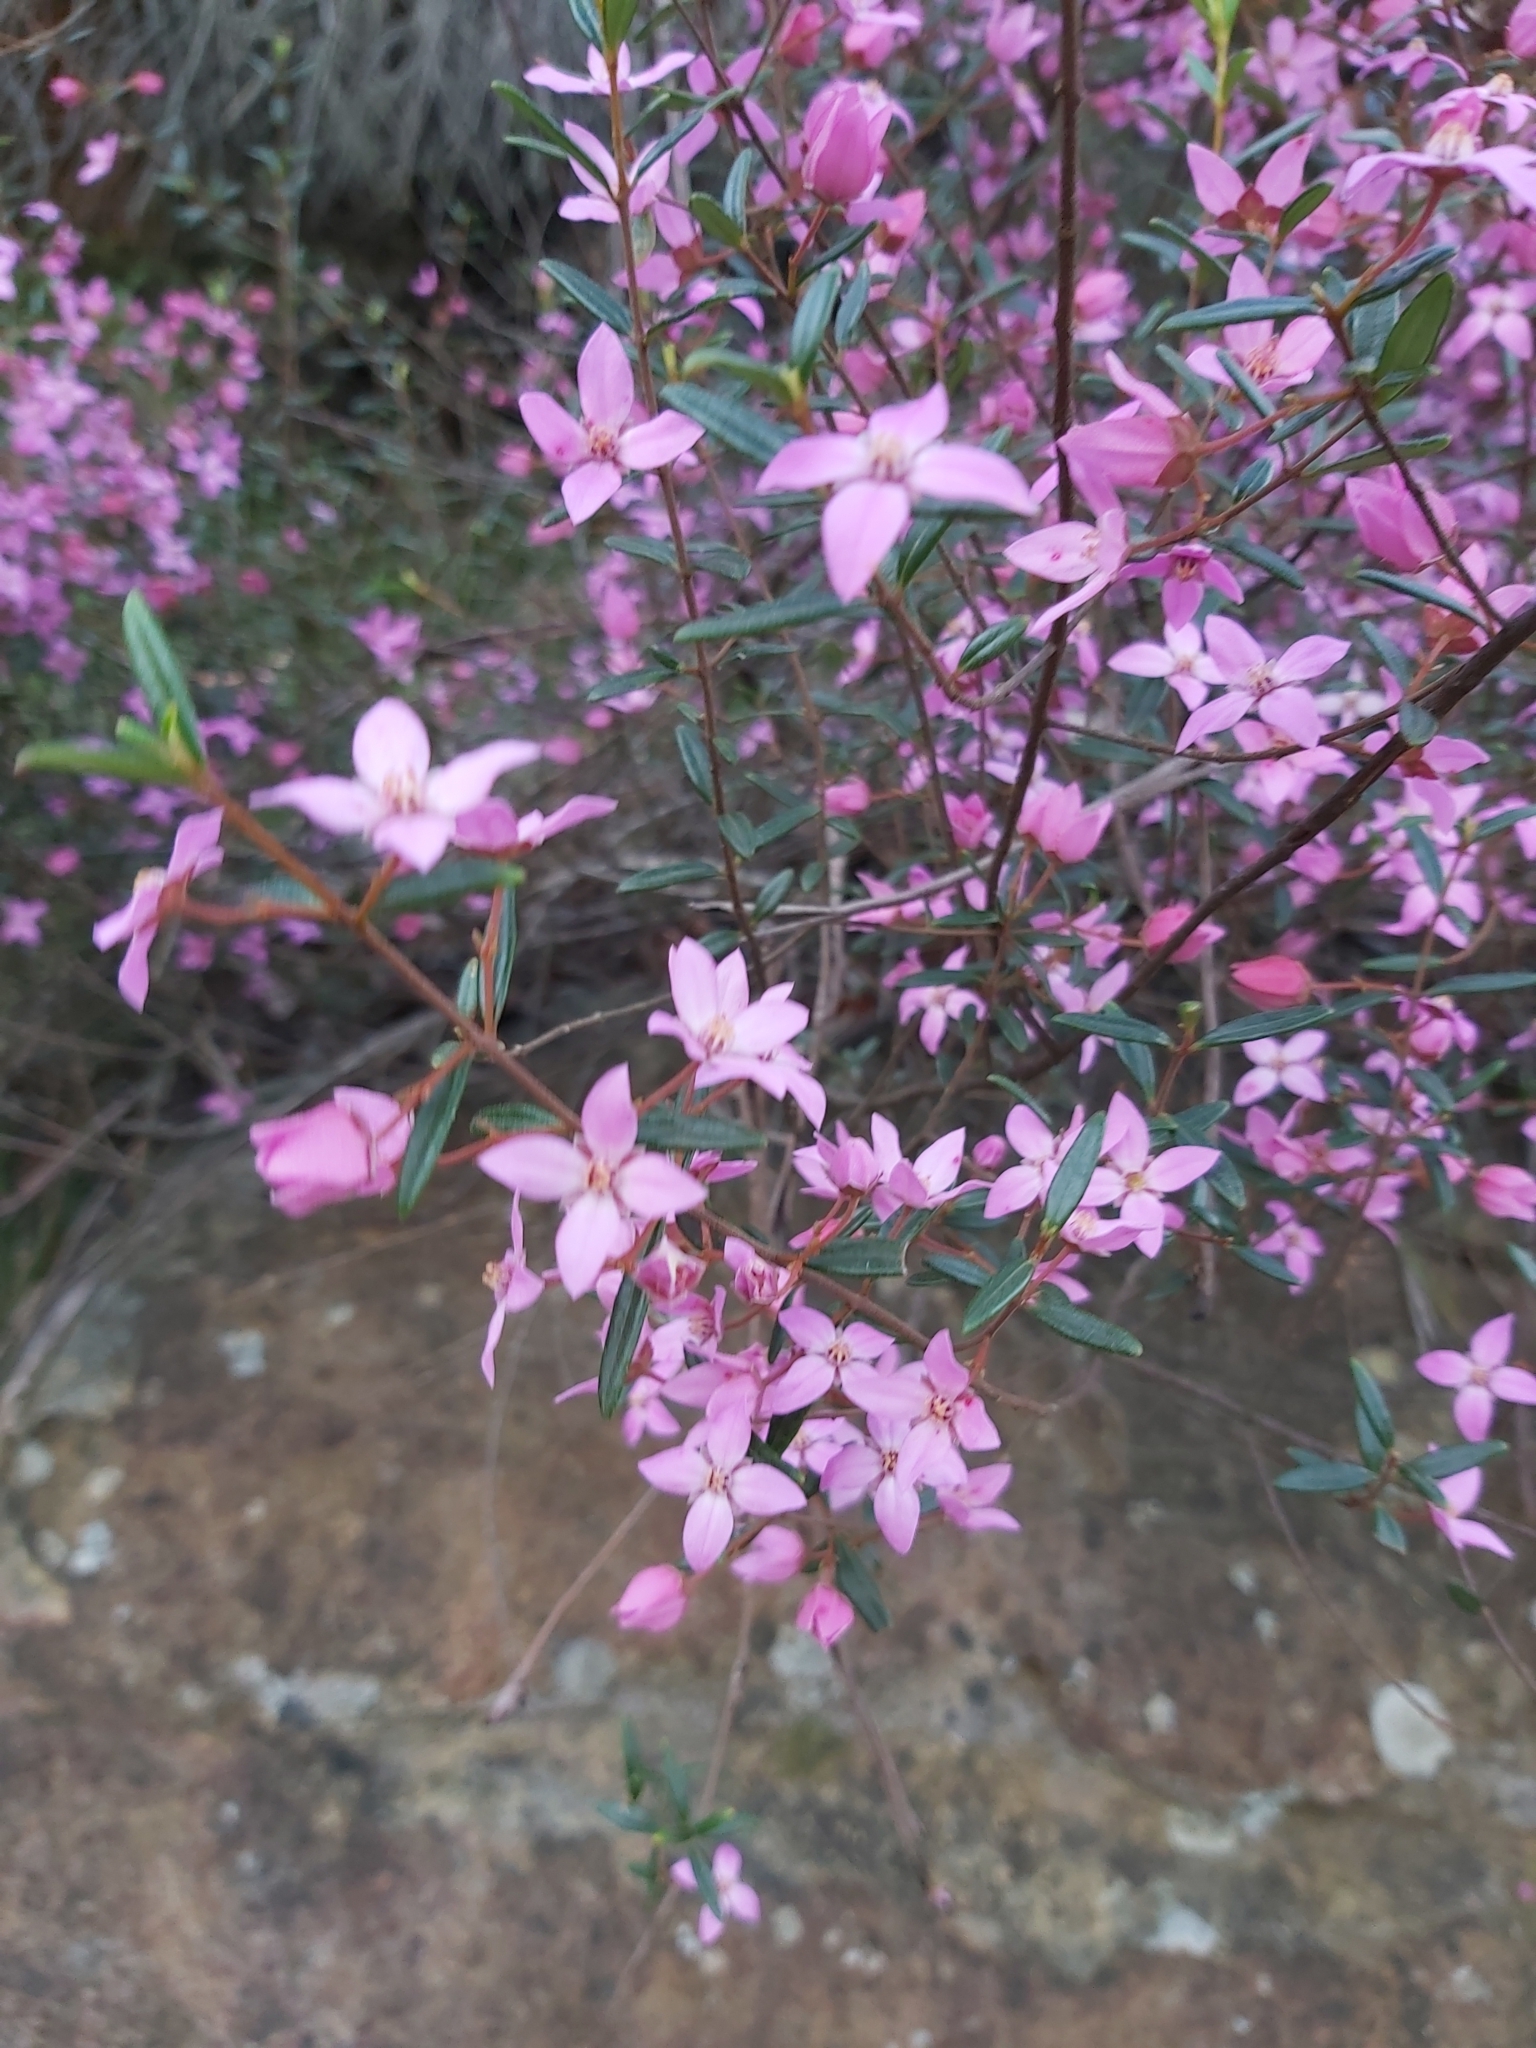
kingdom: Plantae
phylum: Tracheophyta
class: Magnoliopsida
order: Sapindales
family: Rutaceae
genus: Boronia
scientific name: Boronia ledifolia
